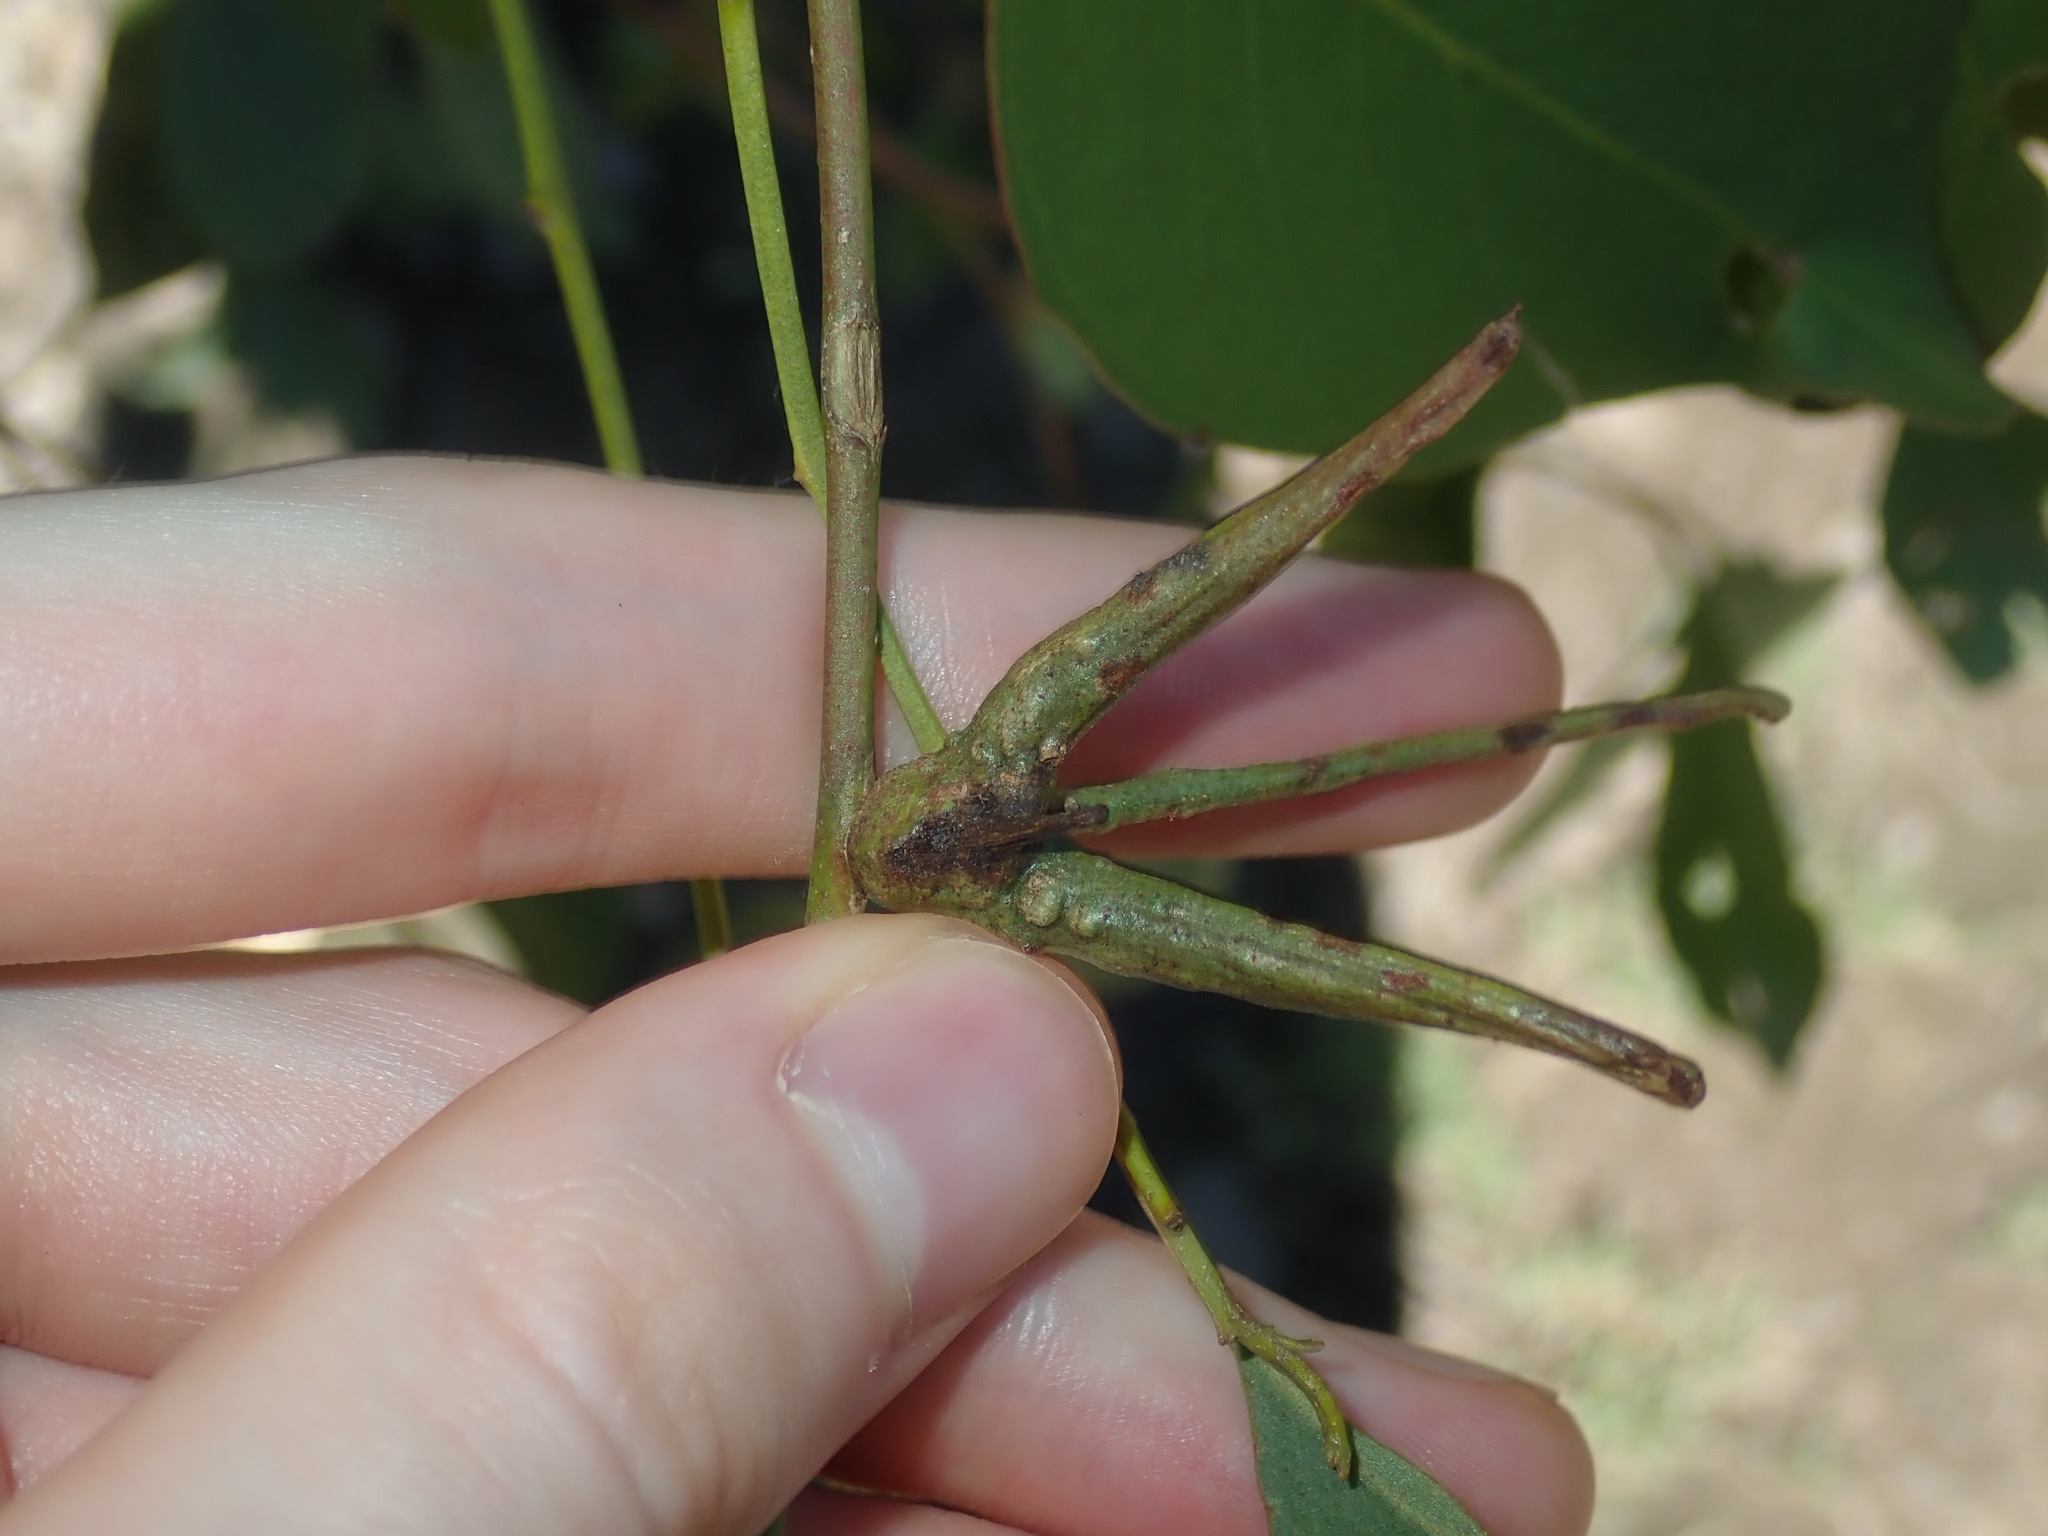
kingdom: Animalia
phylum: Arthropoda
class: Insecta
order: Hemiptera
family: Eriococcidae
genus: Apiomorpha
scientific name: Apiomorpha munita
